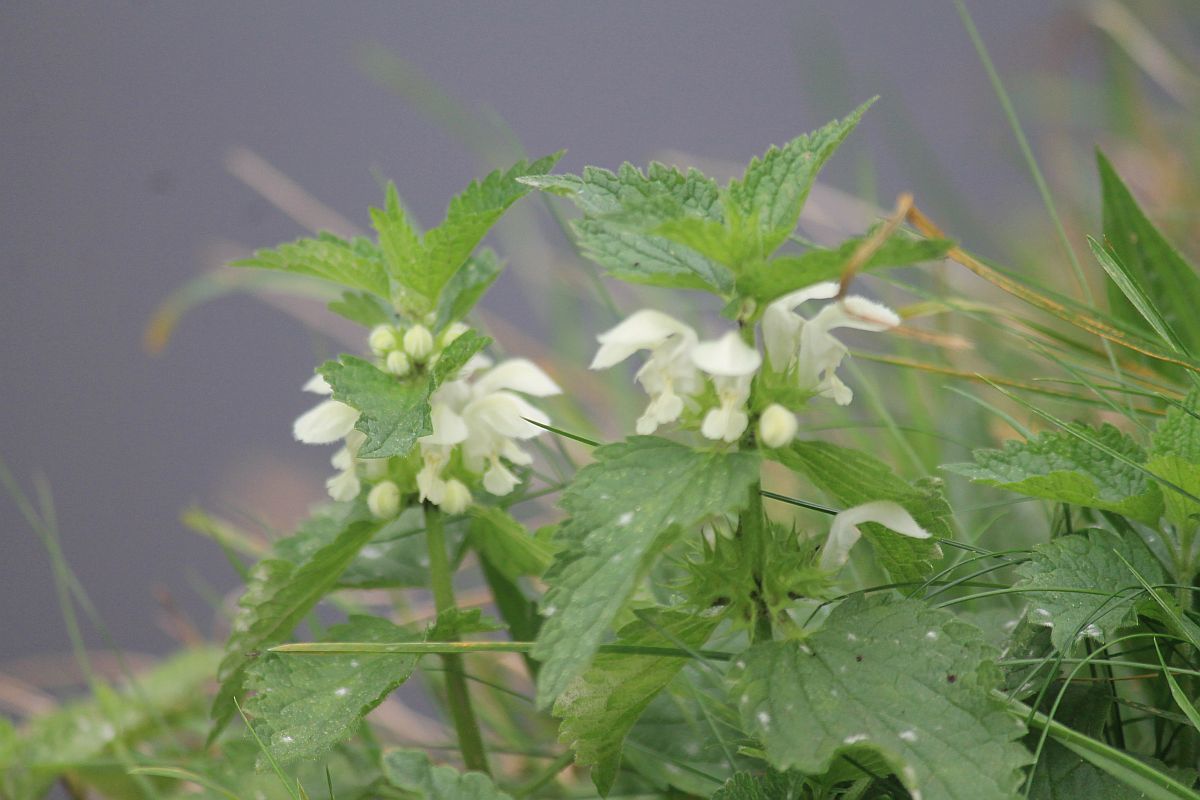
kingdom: Plantae
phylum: Tracheophyta
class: Magnoliopsida
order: Lamiales
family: Lamiaceae
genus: Lamium
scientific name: Lamium album
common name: White dead-nettle
